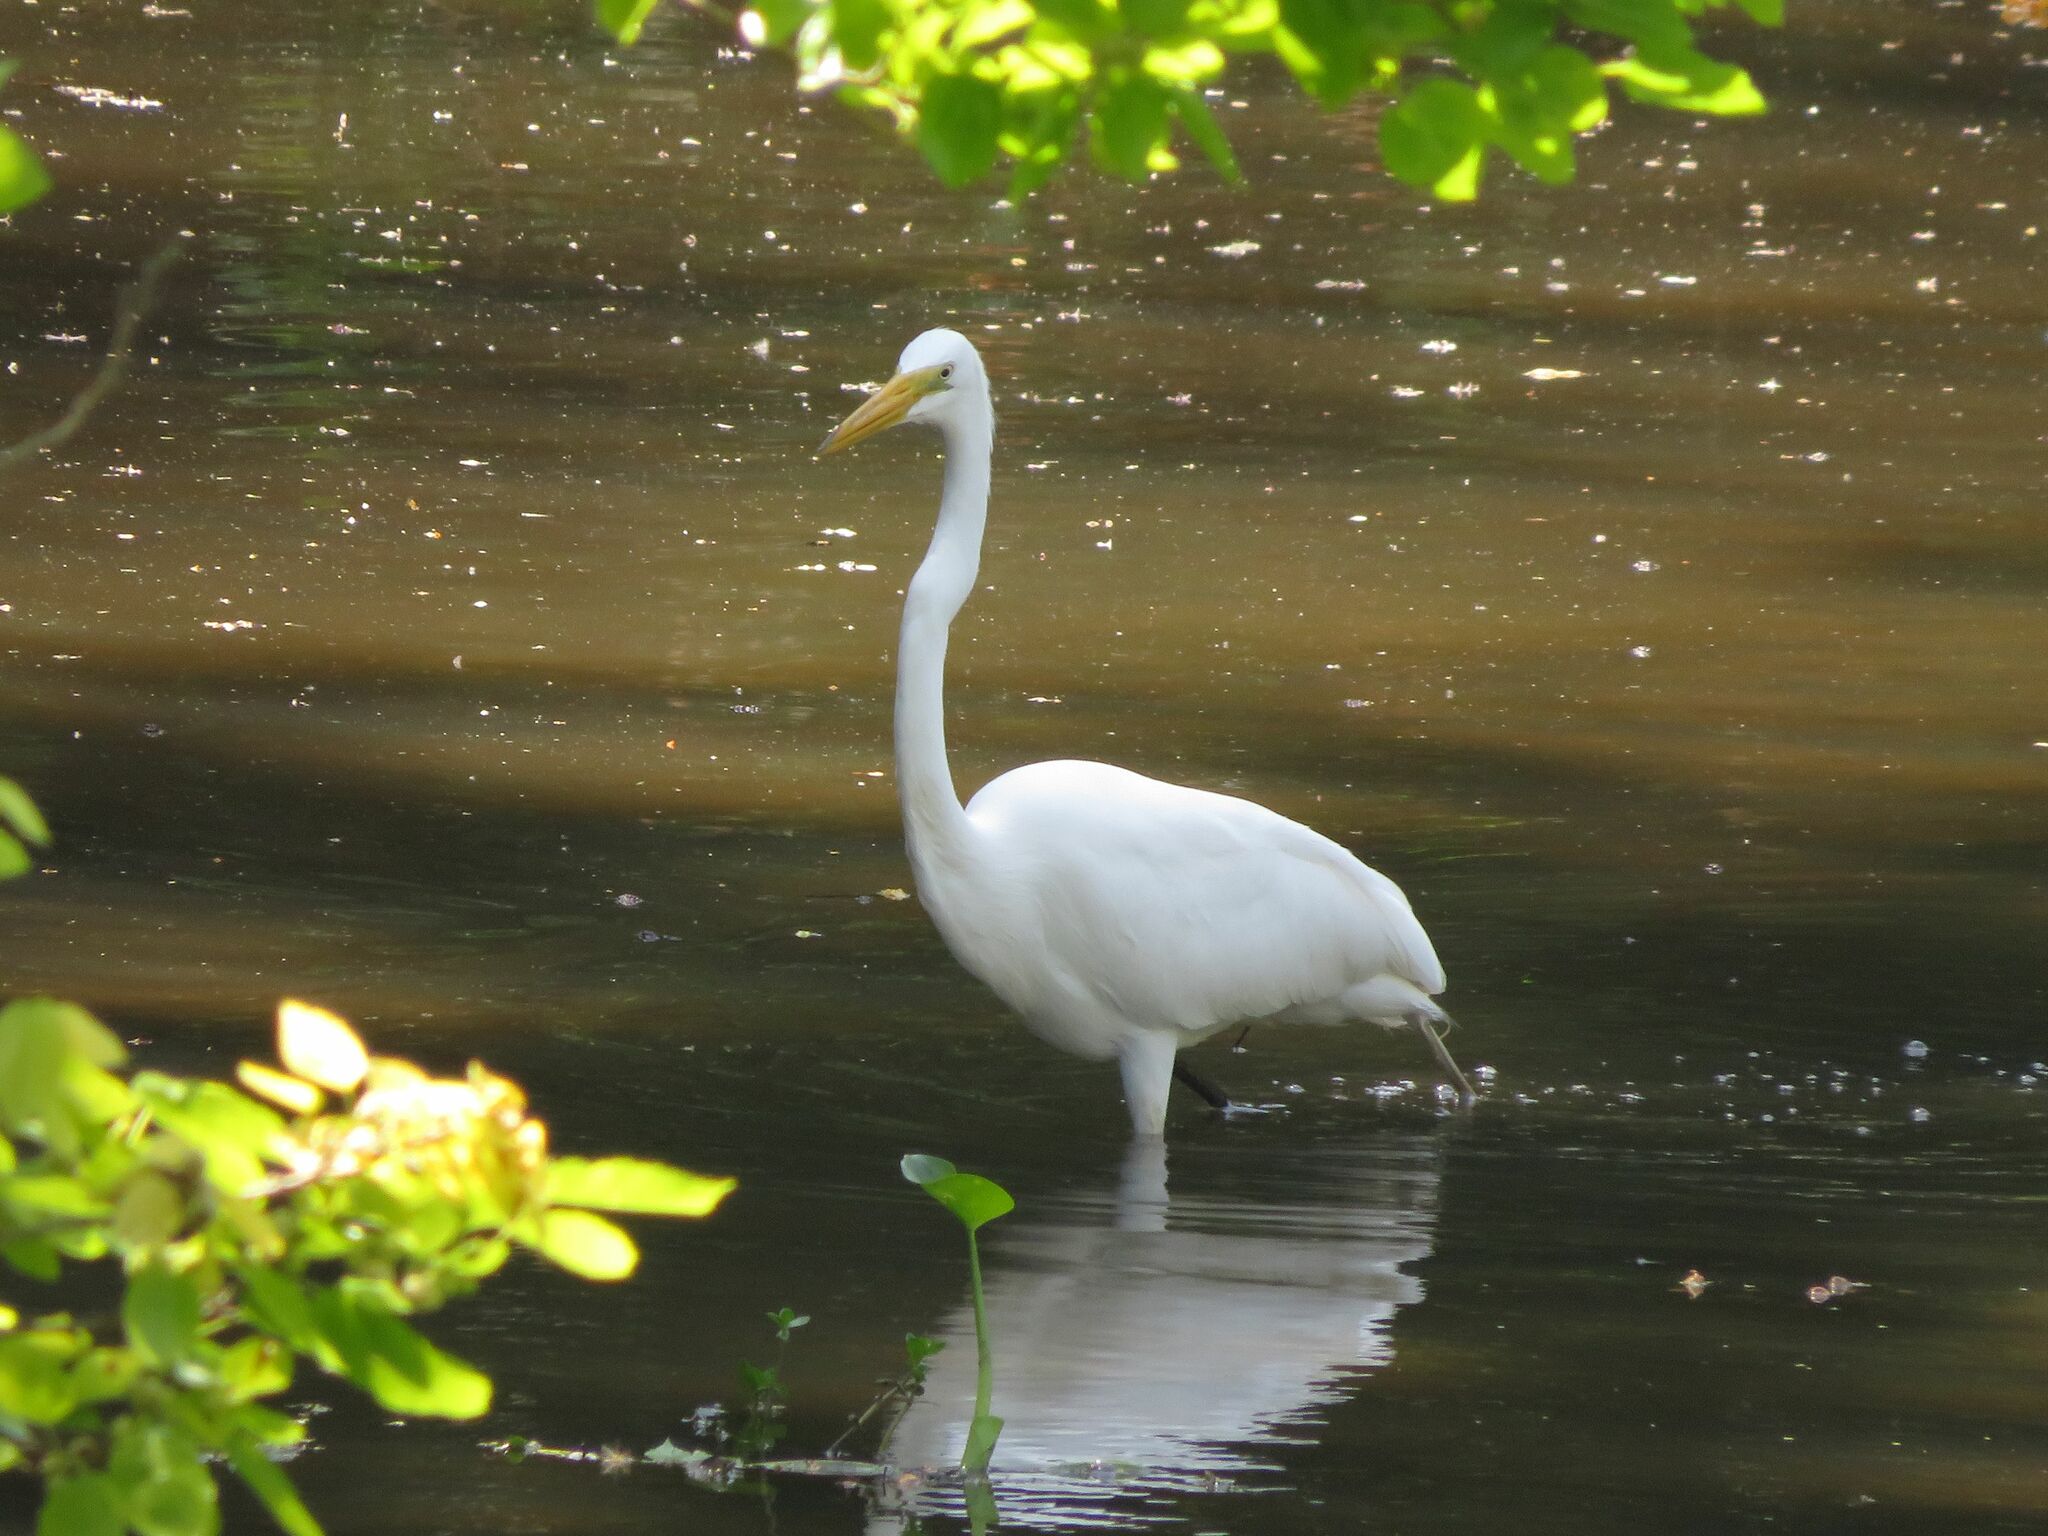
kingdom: Animalia
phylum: Chordata
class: Aves
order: Pelecaniformes
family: Ardeidae
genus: Ardea
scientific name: Ardea alba
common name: Great egret
